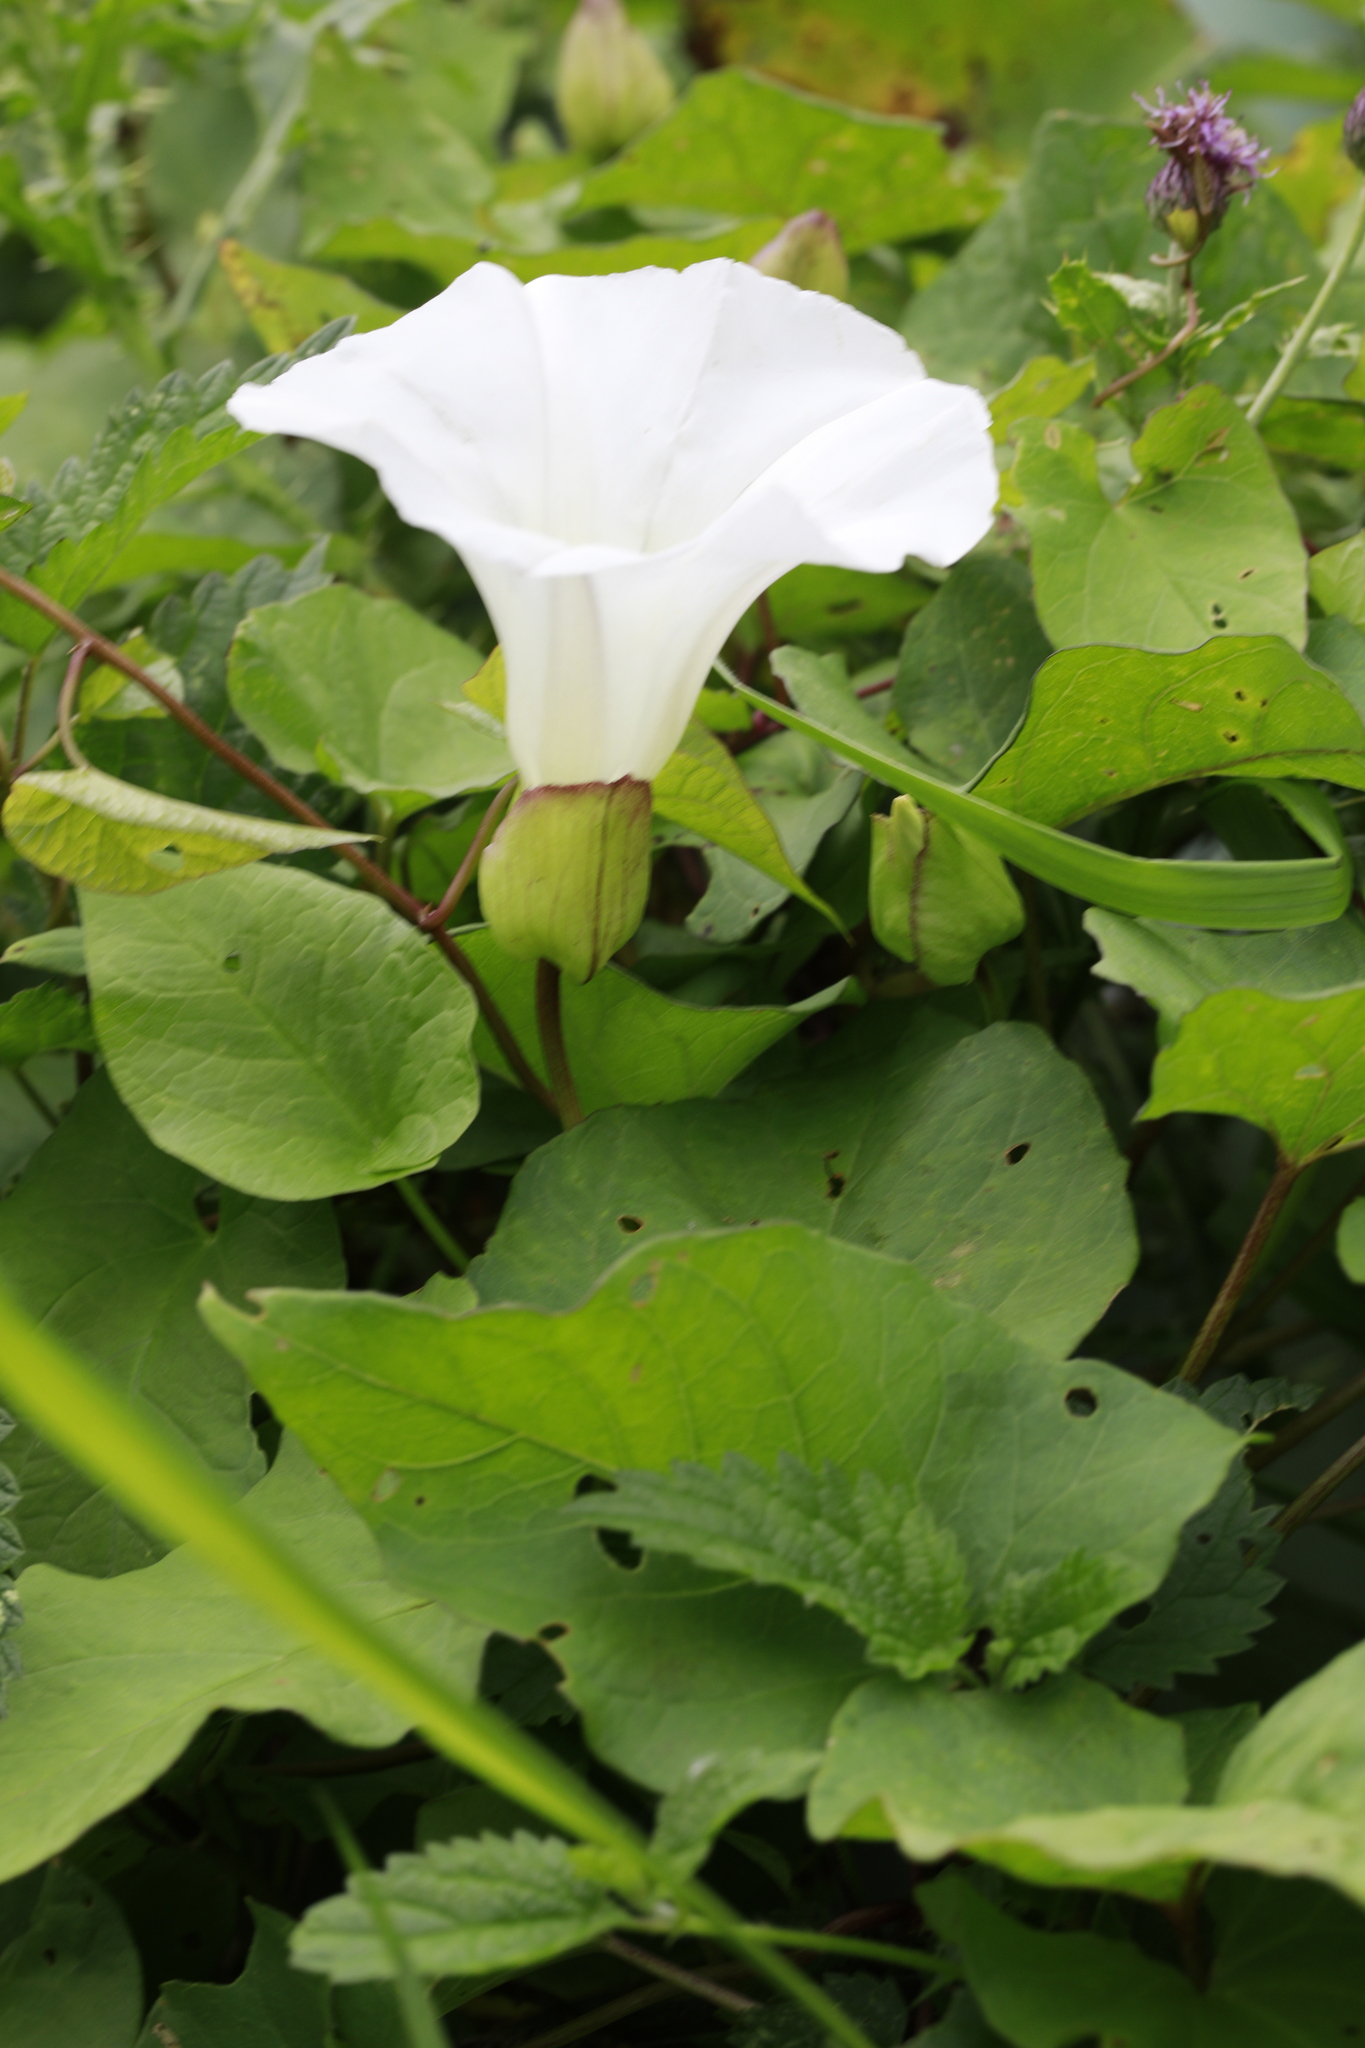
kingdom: Plantae
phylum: Tracheophyta
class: Magnoliopsida
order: Solanales
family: Convolvulaceae
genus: Calystegia
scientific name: Calystegia silvatica
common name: Large bindweed
